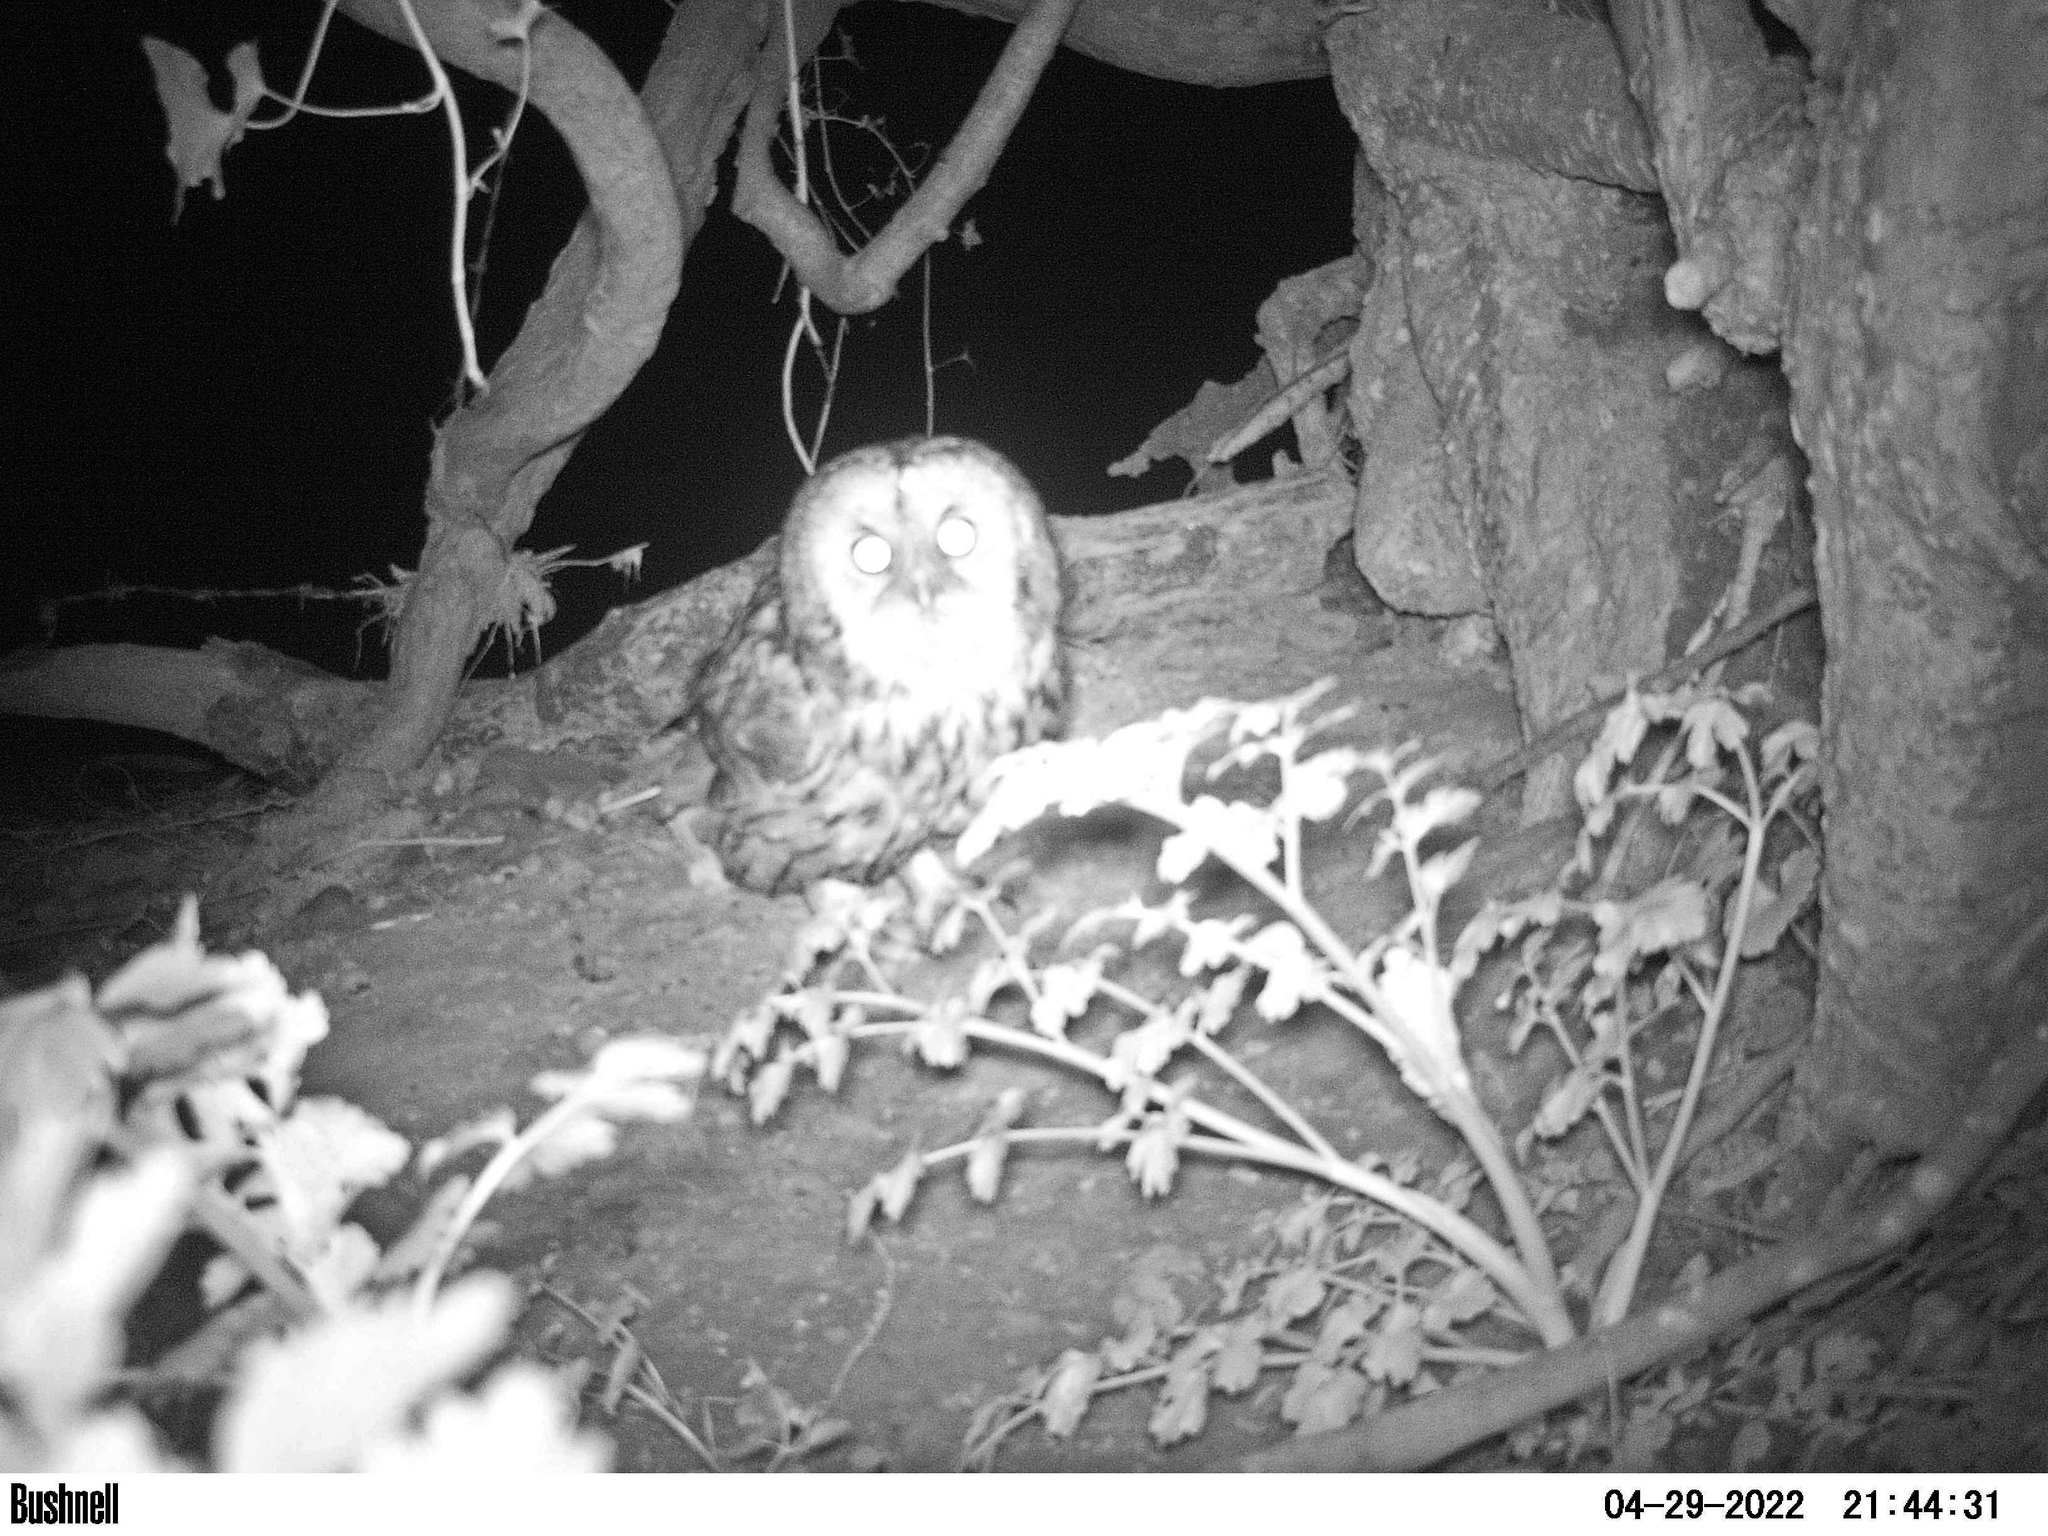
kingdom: Animalia
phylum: Chordata
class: Aves
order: Strigiformes
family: Strigidae
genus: Strix
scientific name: Strix aluco
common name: Tawny owl
